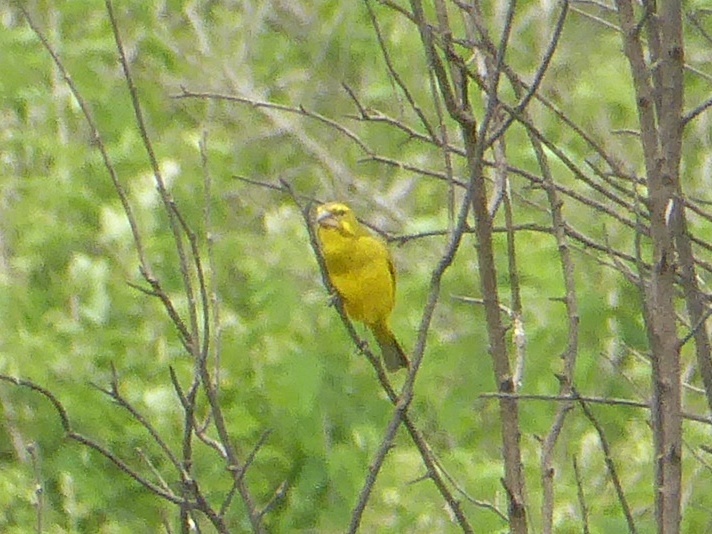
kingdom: Animalia
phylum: Chordata
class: Aves
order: Passeriformes
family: Fringillidae
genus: Crithagra
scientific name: Crithagra sulphurata
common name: Brimstone canary
